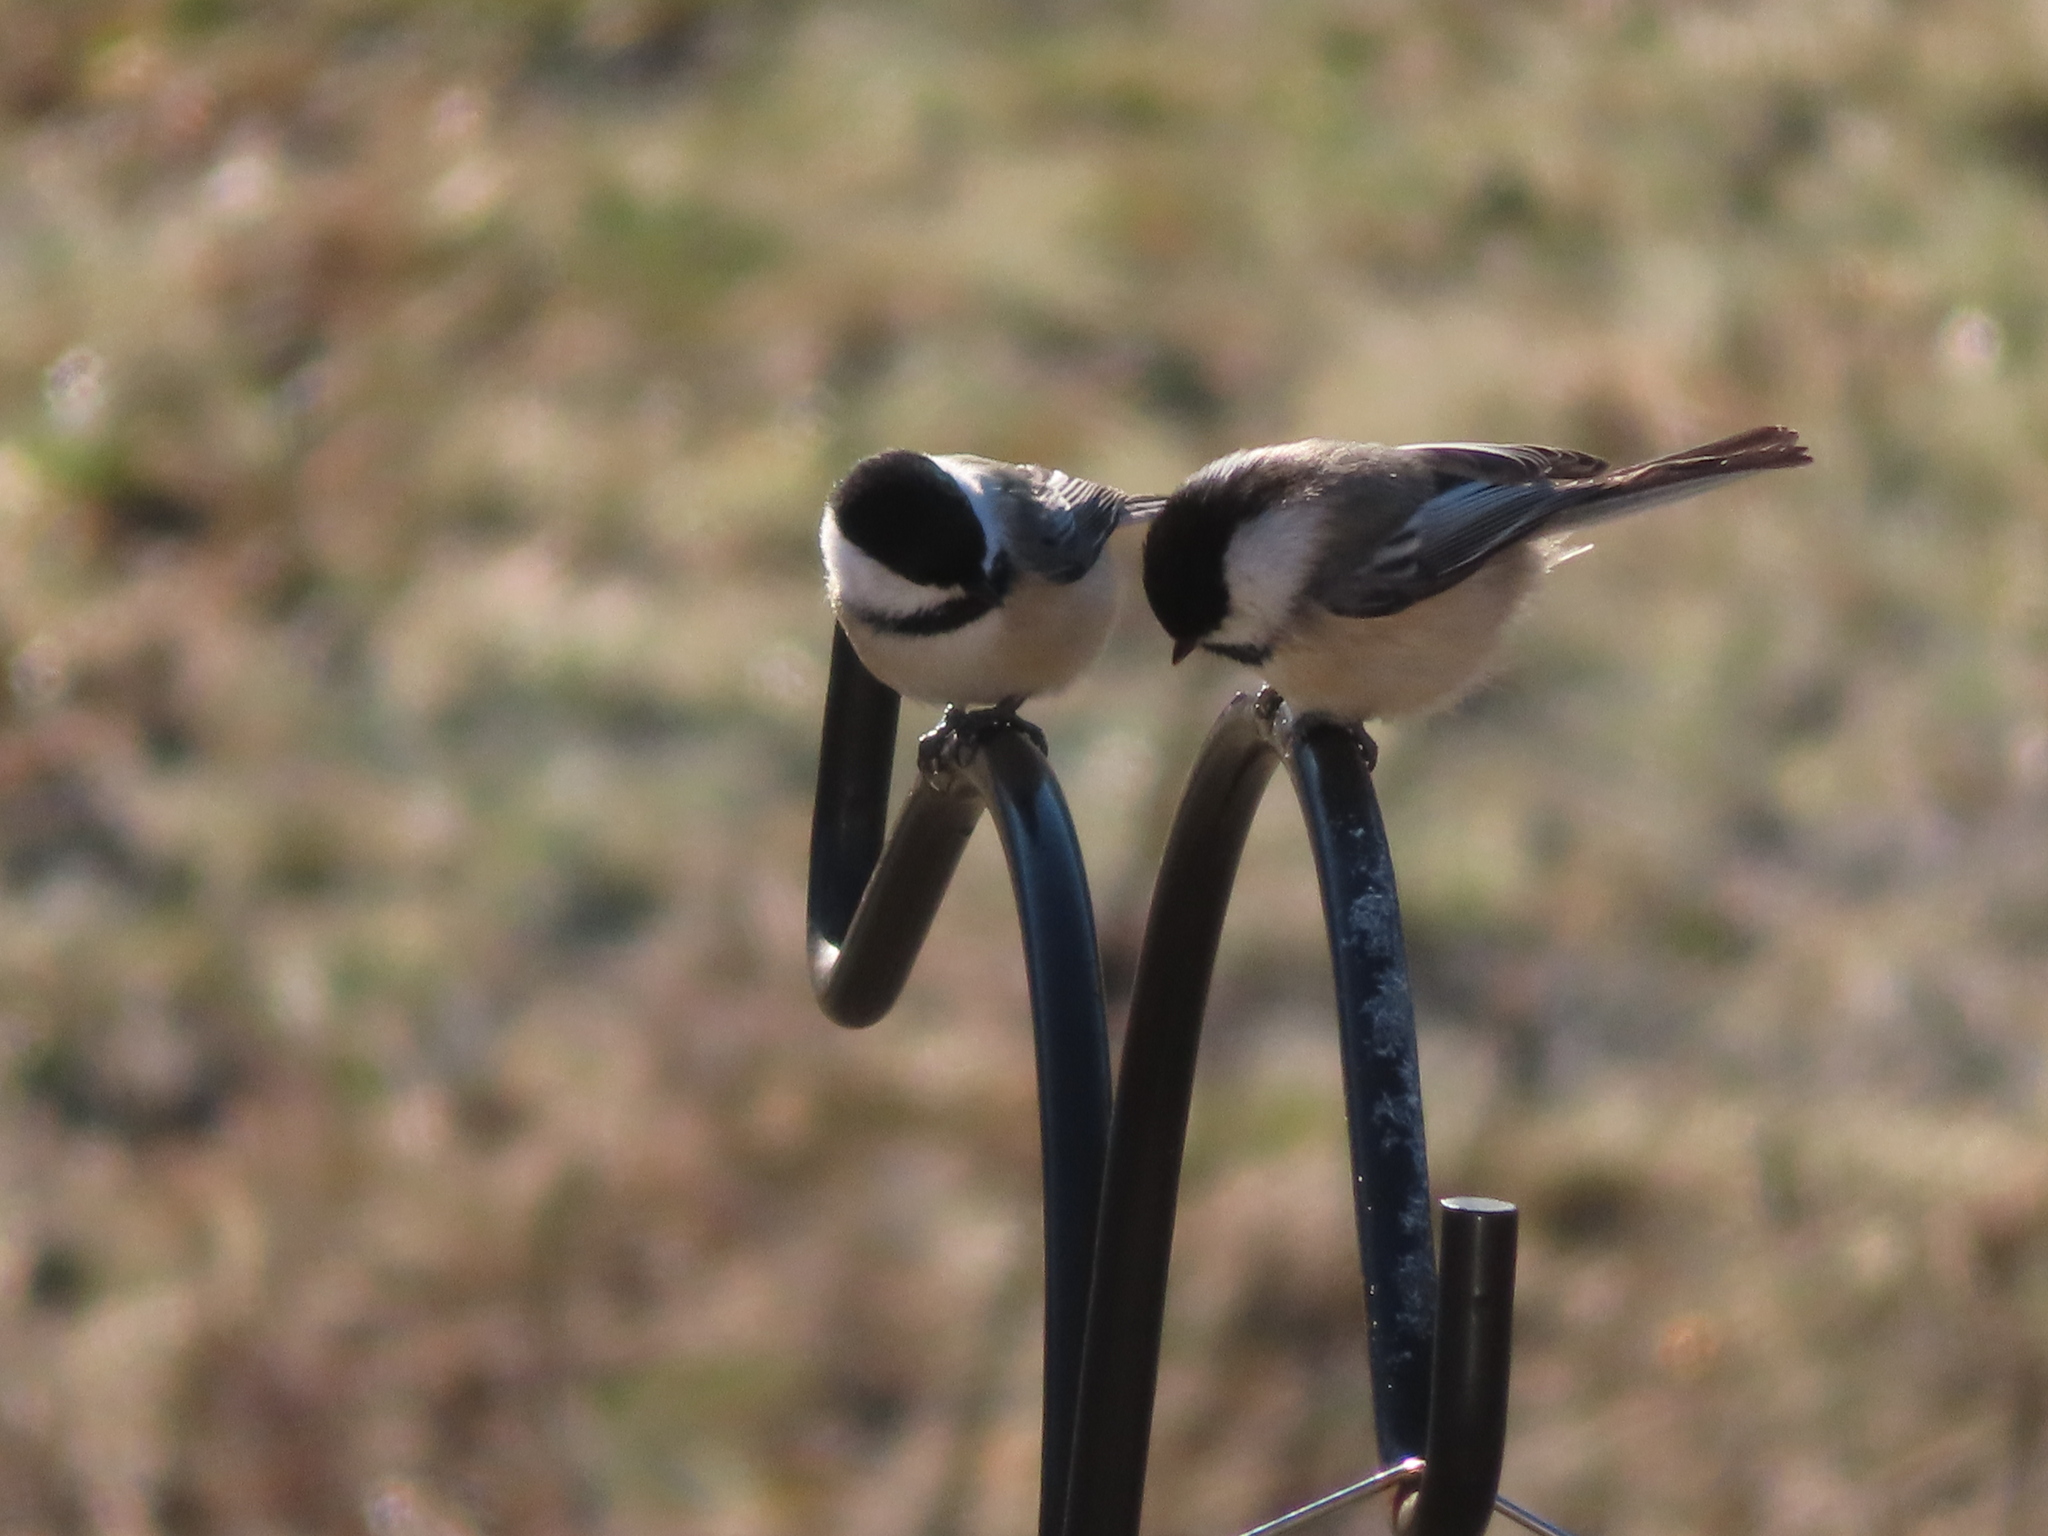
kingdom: Animalia
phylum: Chordata
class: Aves
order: Passeriformes
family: Paridae
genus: Poecile
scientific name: Poecile atricapillus
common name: Black-capped chickadee
